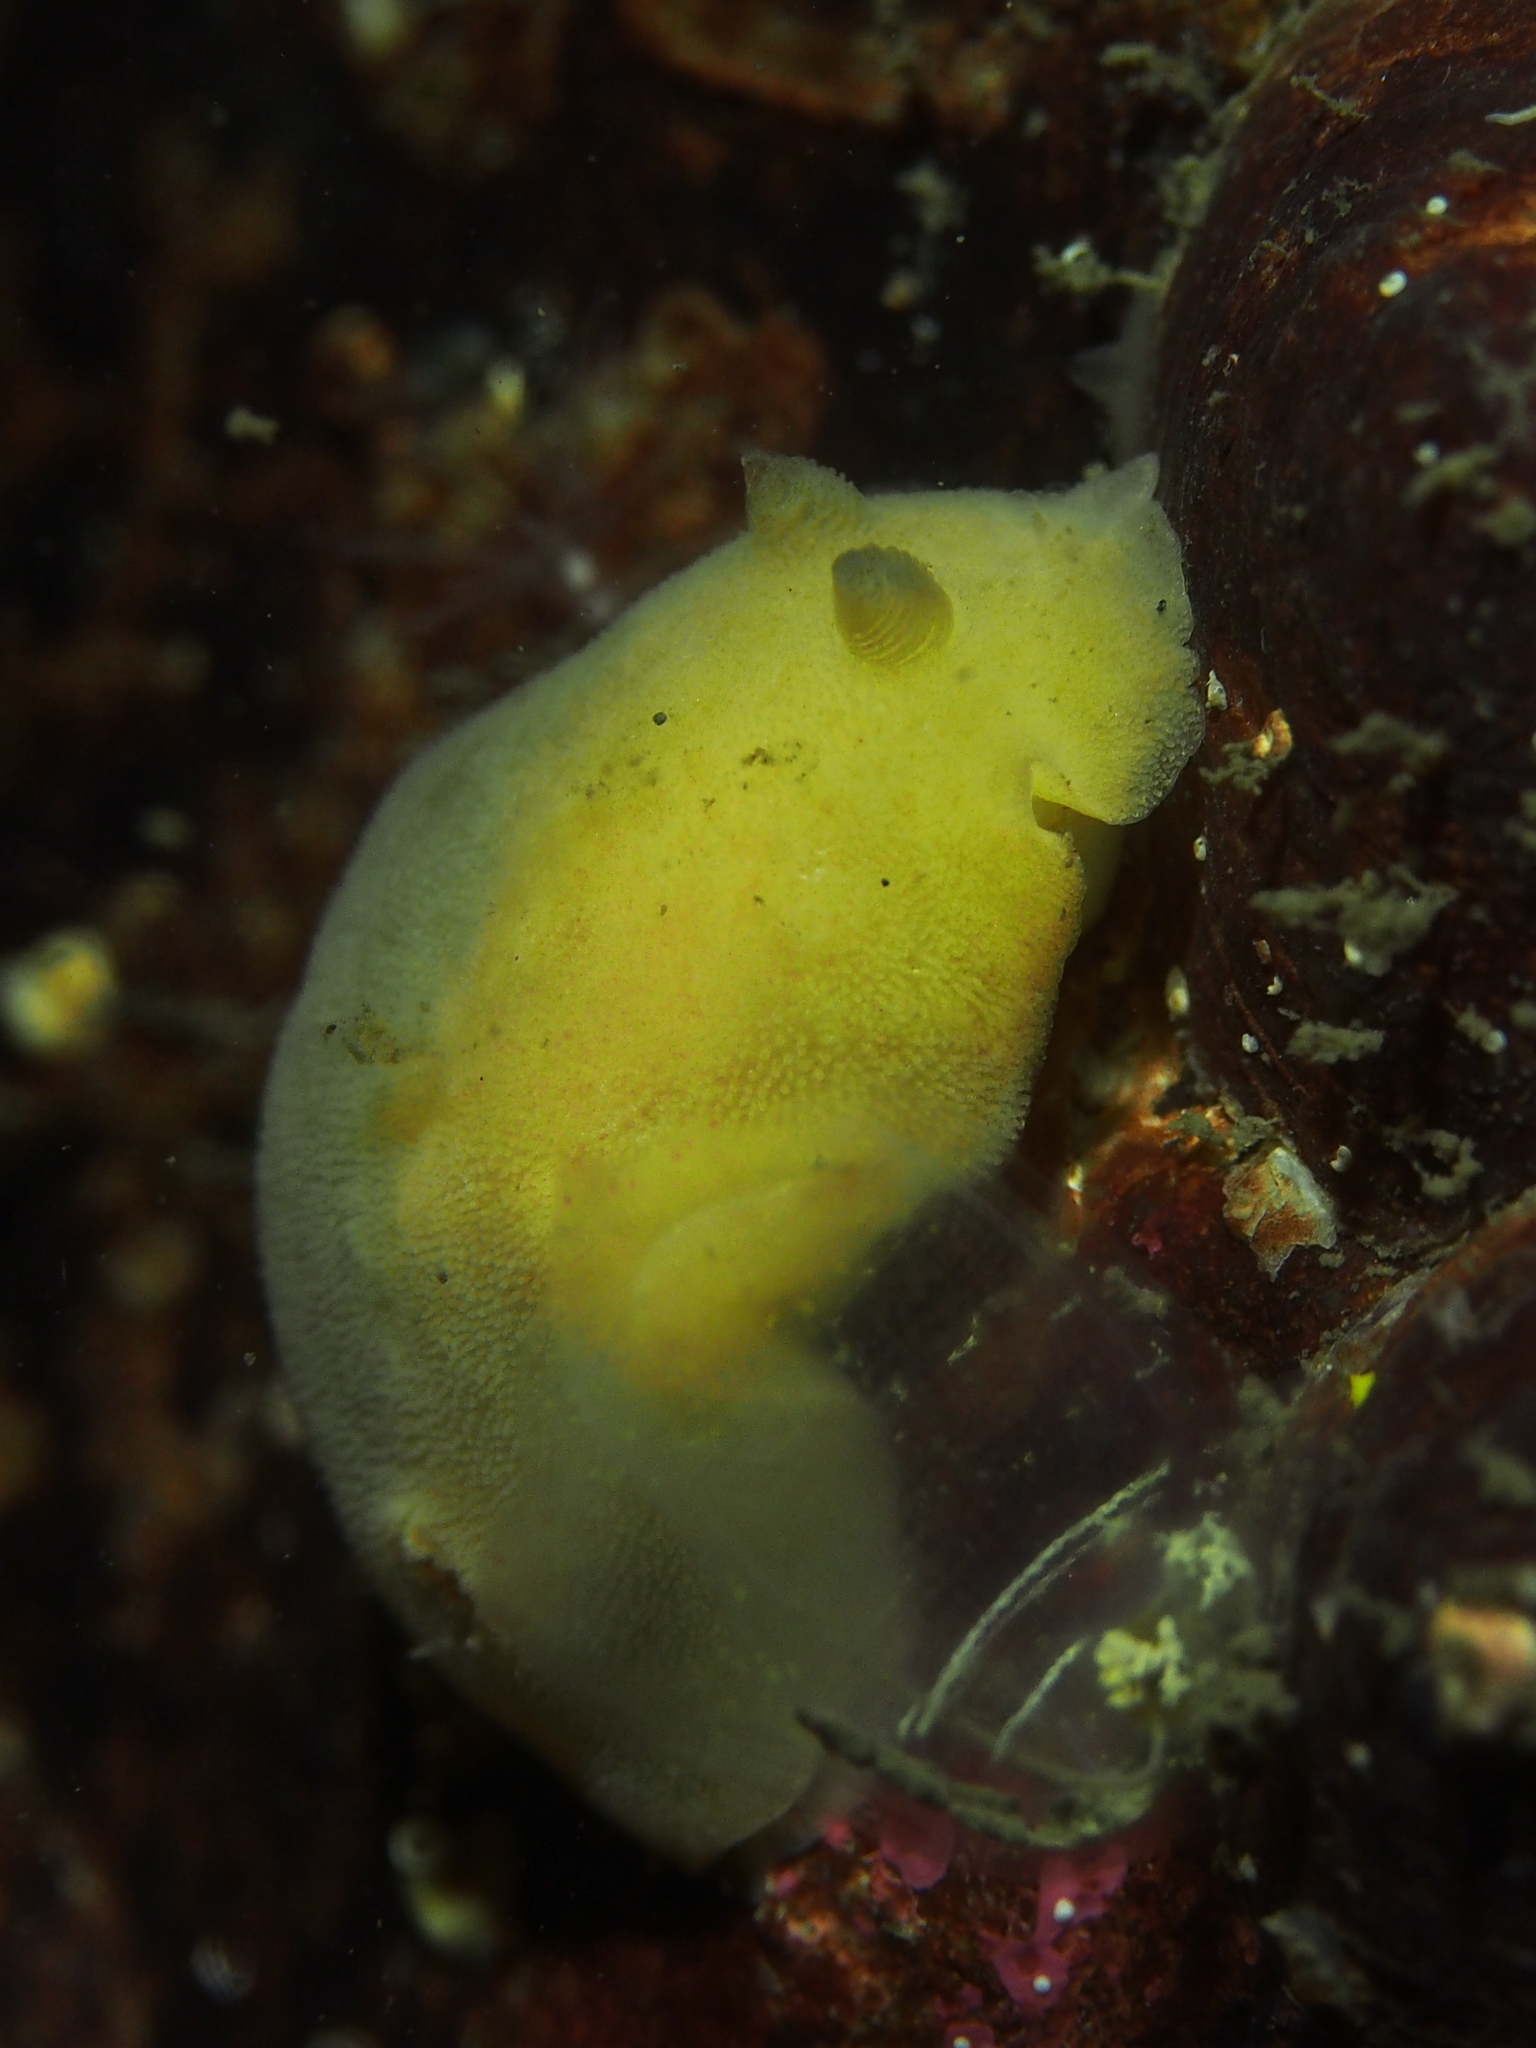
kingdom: Animalia
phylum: Mollusca
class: Gastropoda
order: Nudibranchia
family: Discodorididae
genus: Jorunna
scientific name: Jorunna tomentosa
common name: Grey sea slug
